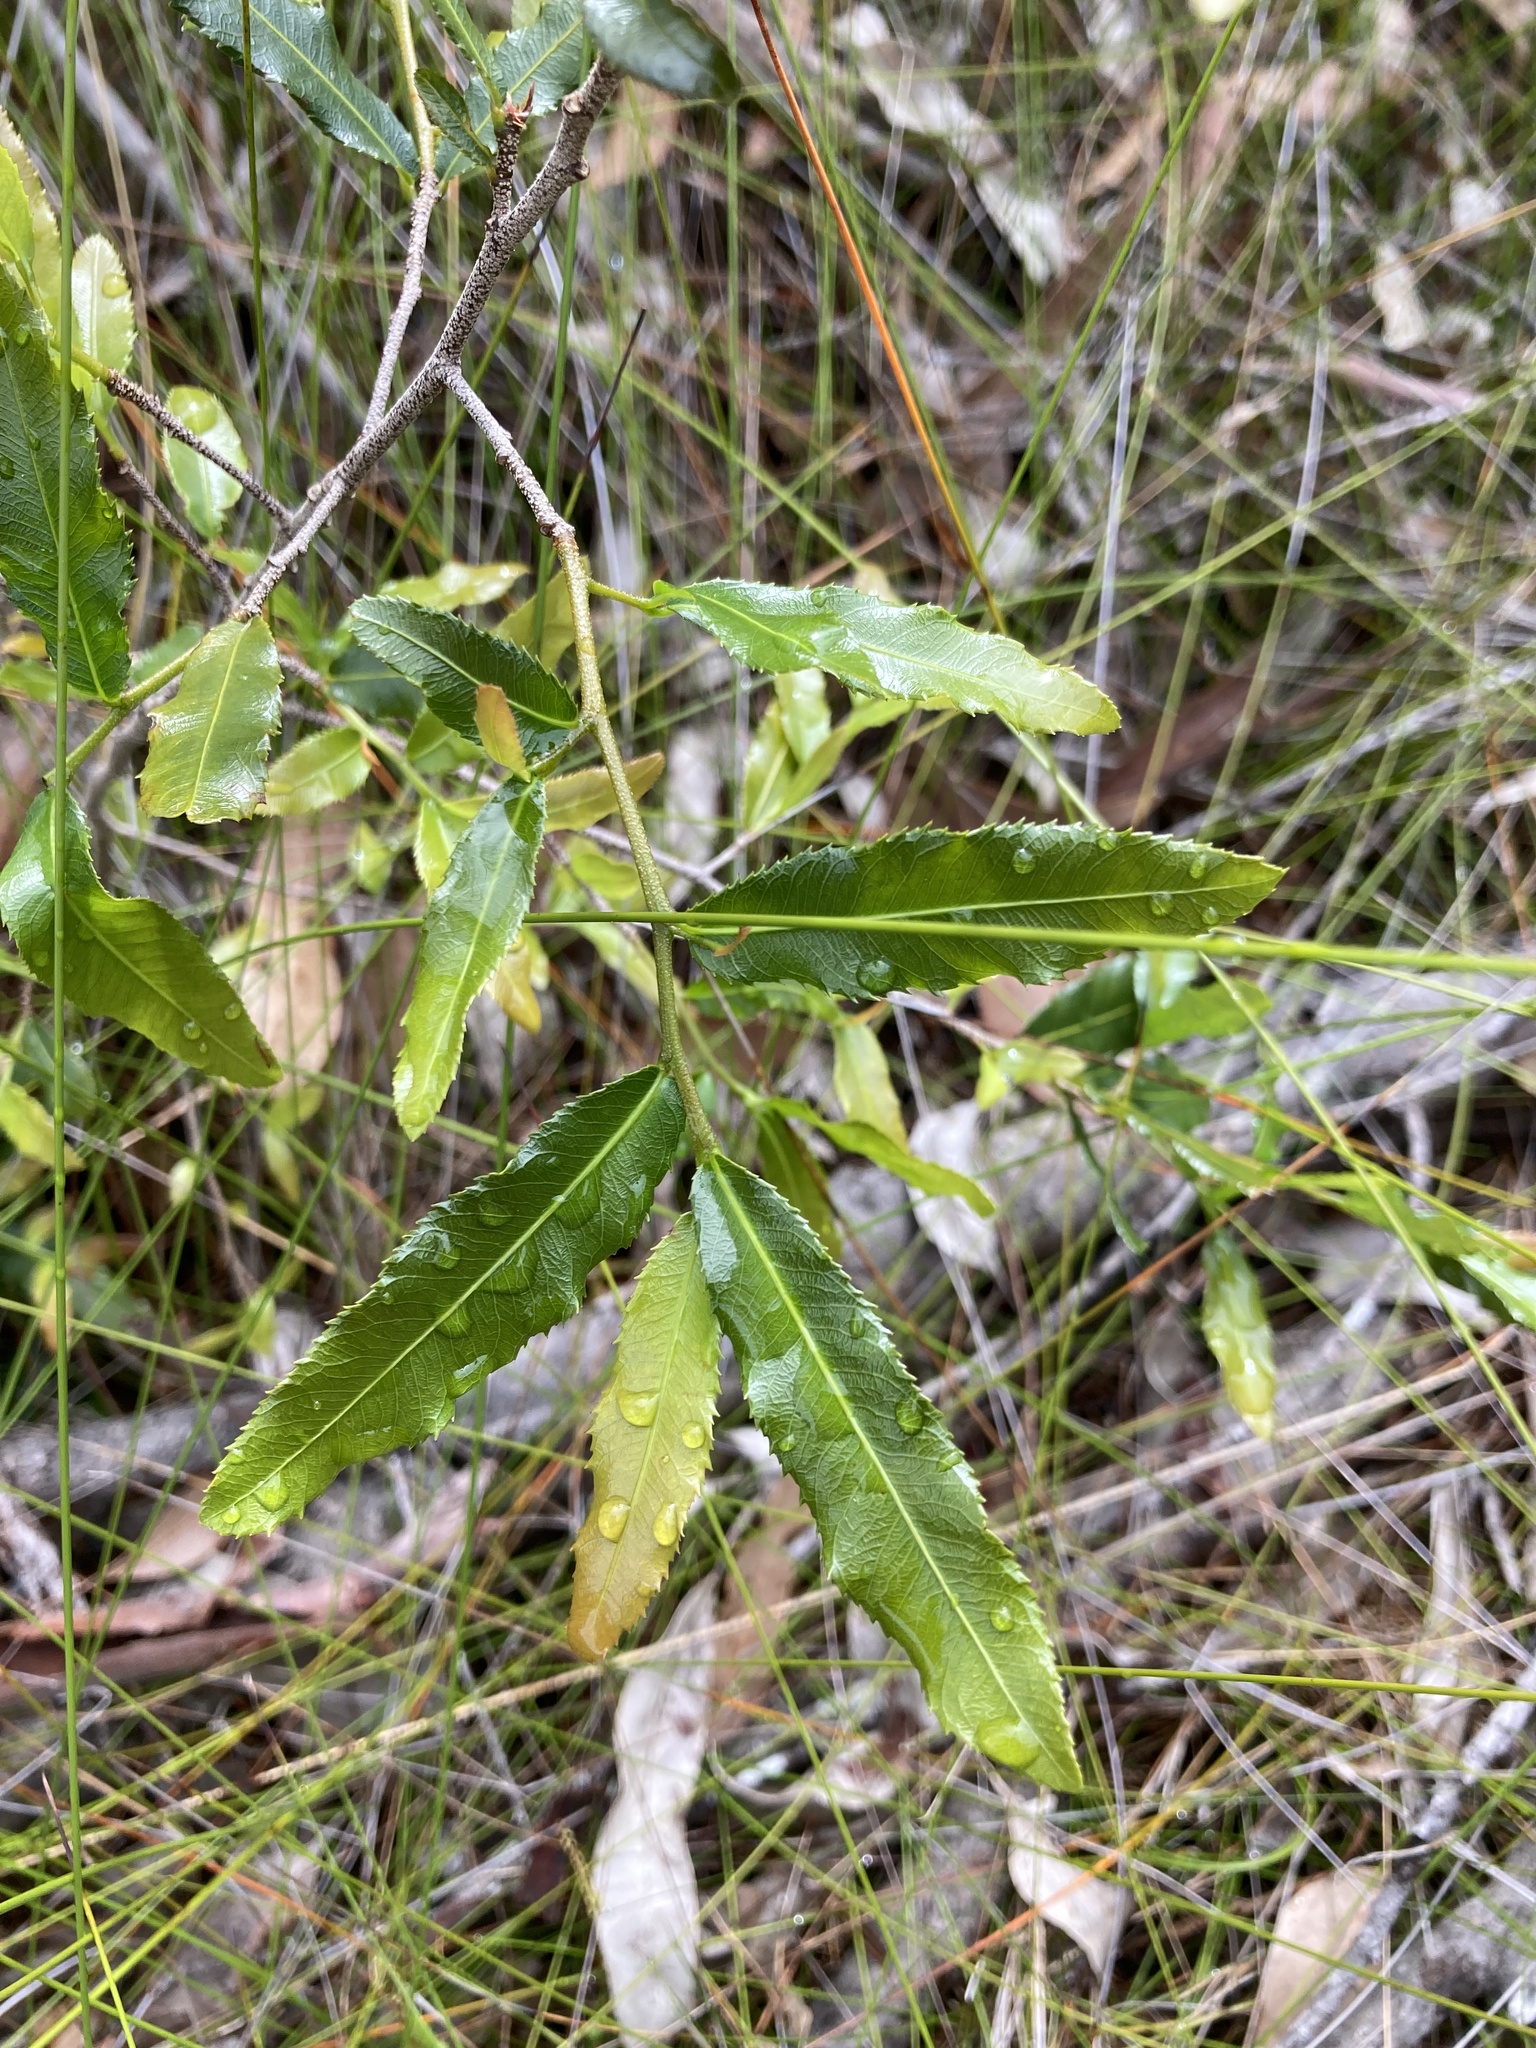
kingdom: Plantae
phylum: Tracheophyta
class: Magnoliopsida
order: Malpighiales
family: Ochnaceae
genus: Ochna
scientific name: Ochna serrulata
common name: Mickey mouse plant
